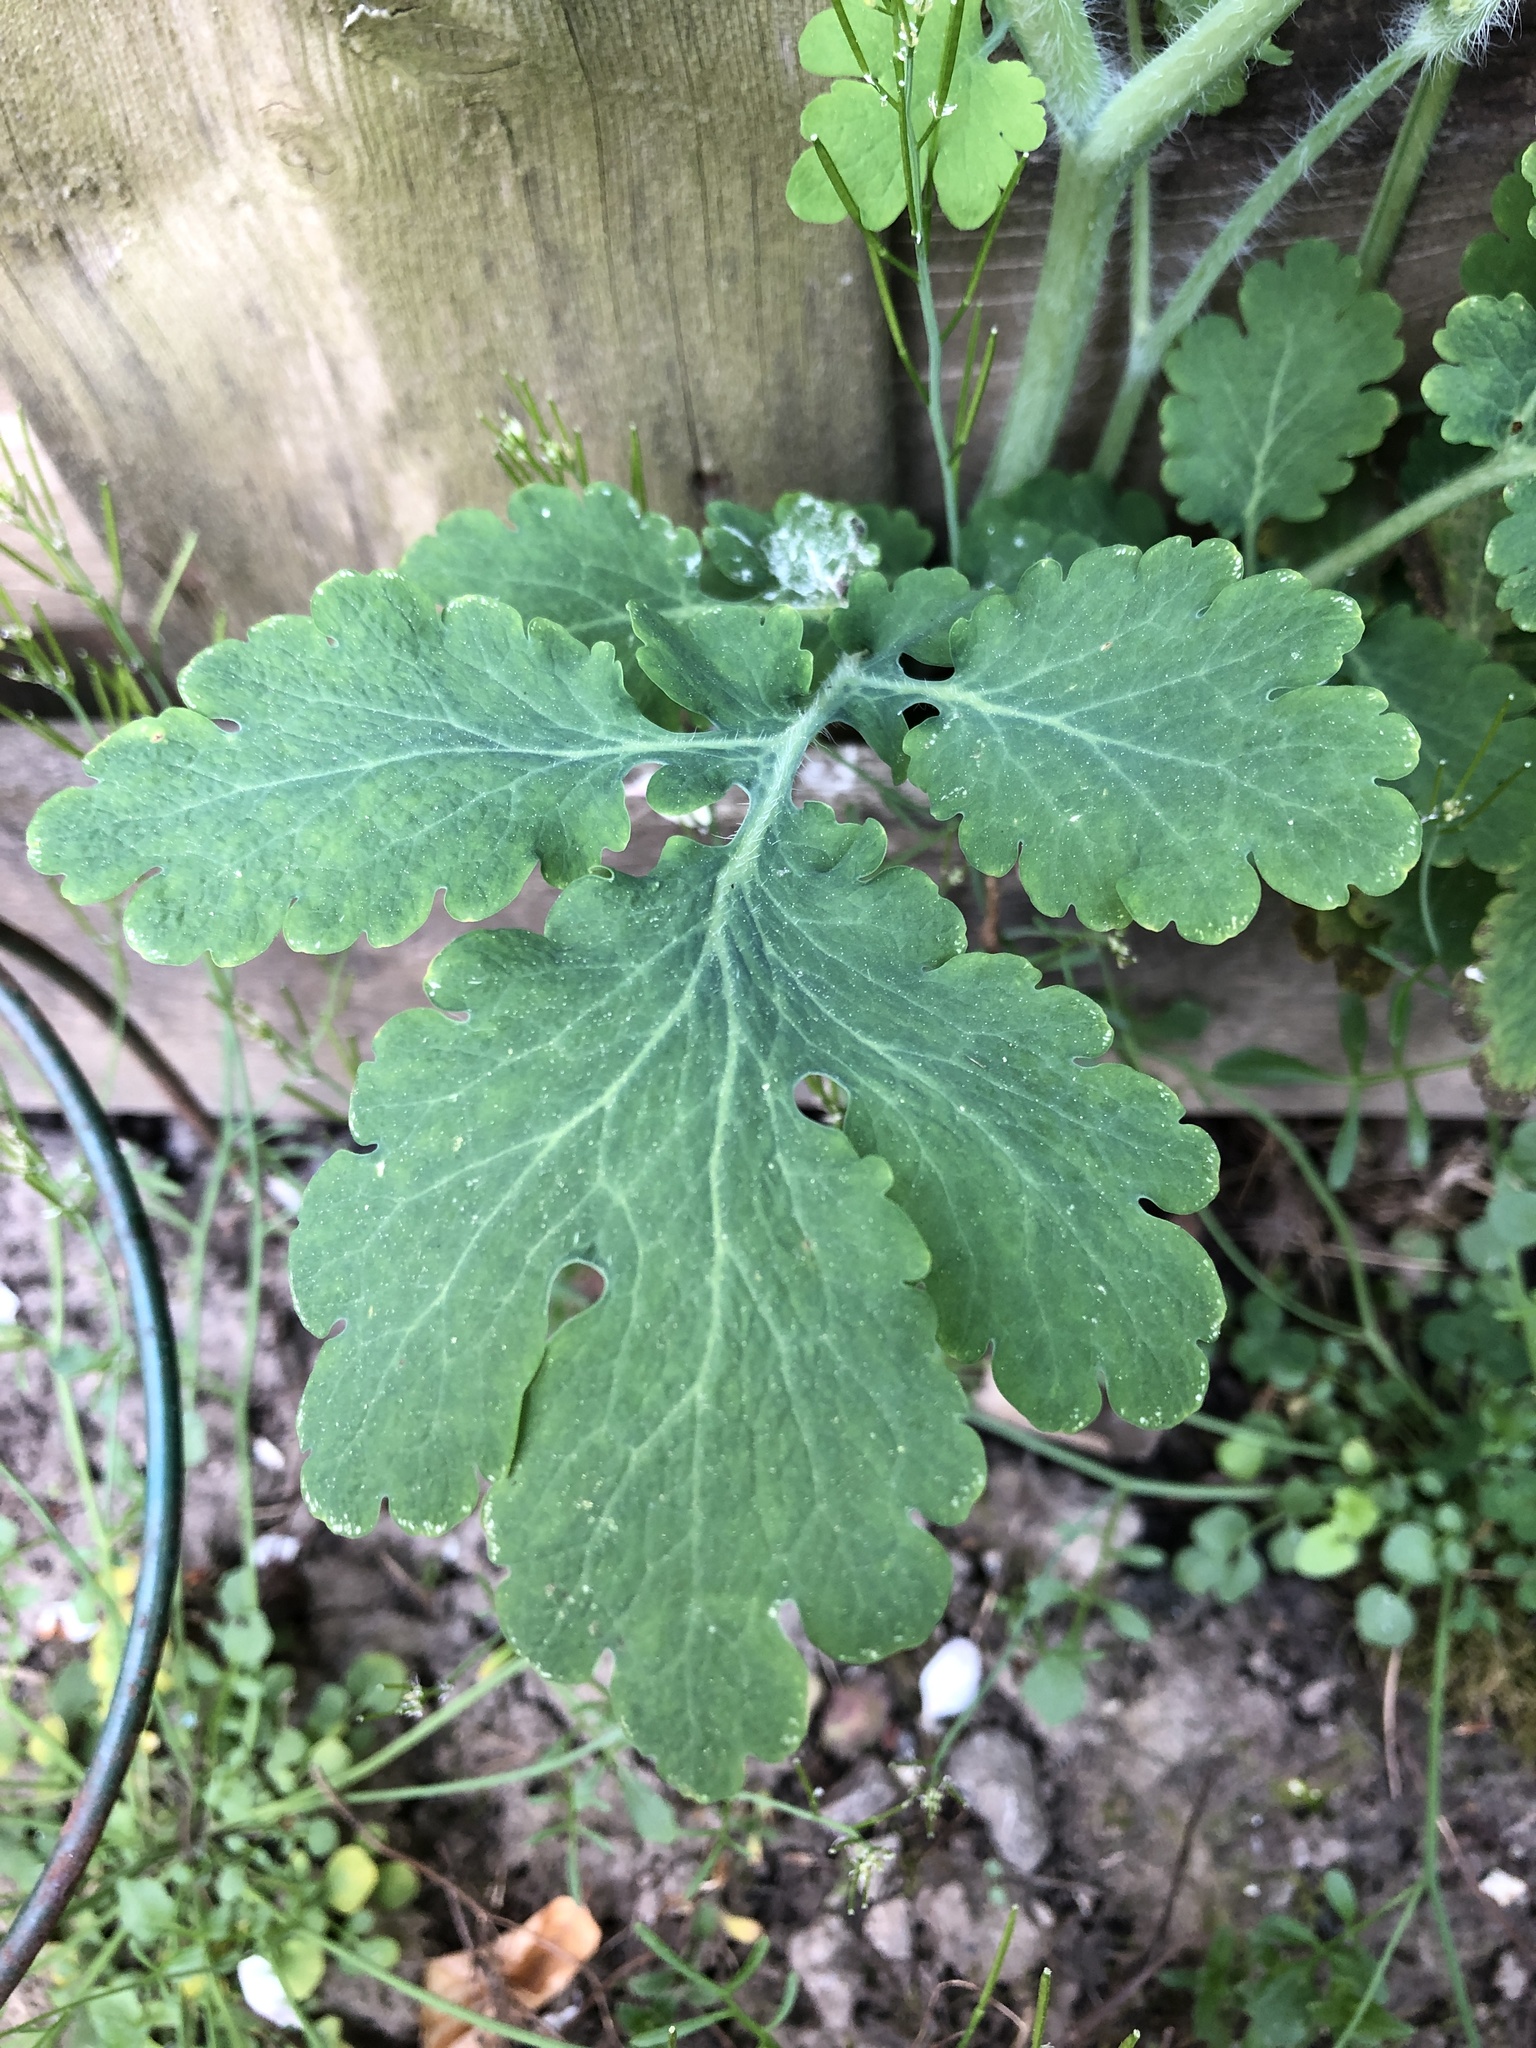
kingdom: Plantae
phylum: Tracheophyta
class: Magnoliopsida
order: Ranunculales
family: Papaveraceae
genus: Chelidonium
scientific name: Chelidonium majus
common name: Greater celandine
